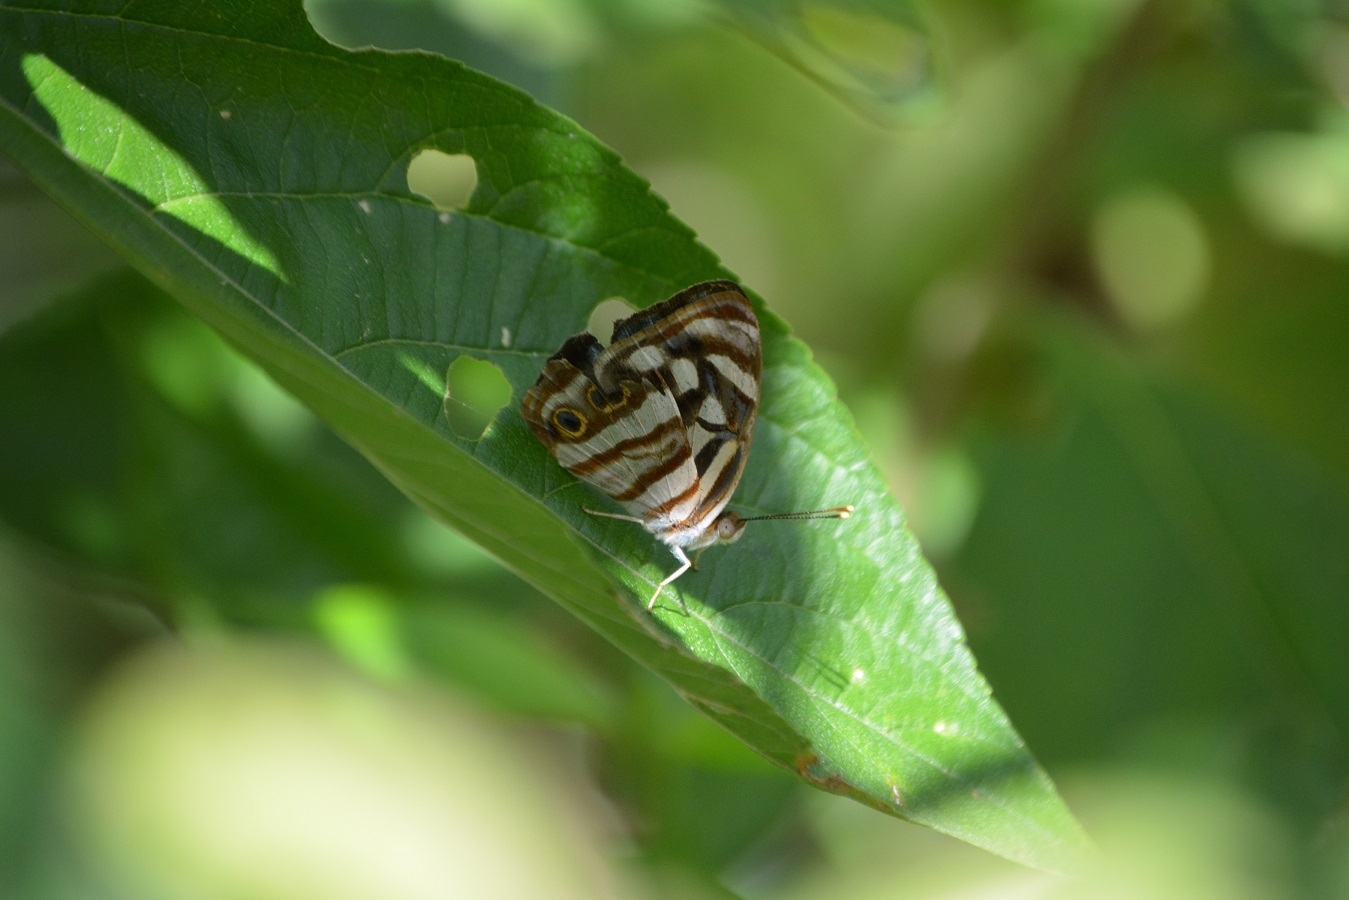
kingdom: Animalia
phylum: Arthropoda
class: Insecta
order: Lepidoptera
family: Nymphalidae
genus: Dynamine
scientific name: Dynamine mylitta
